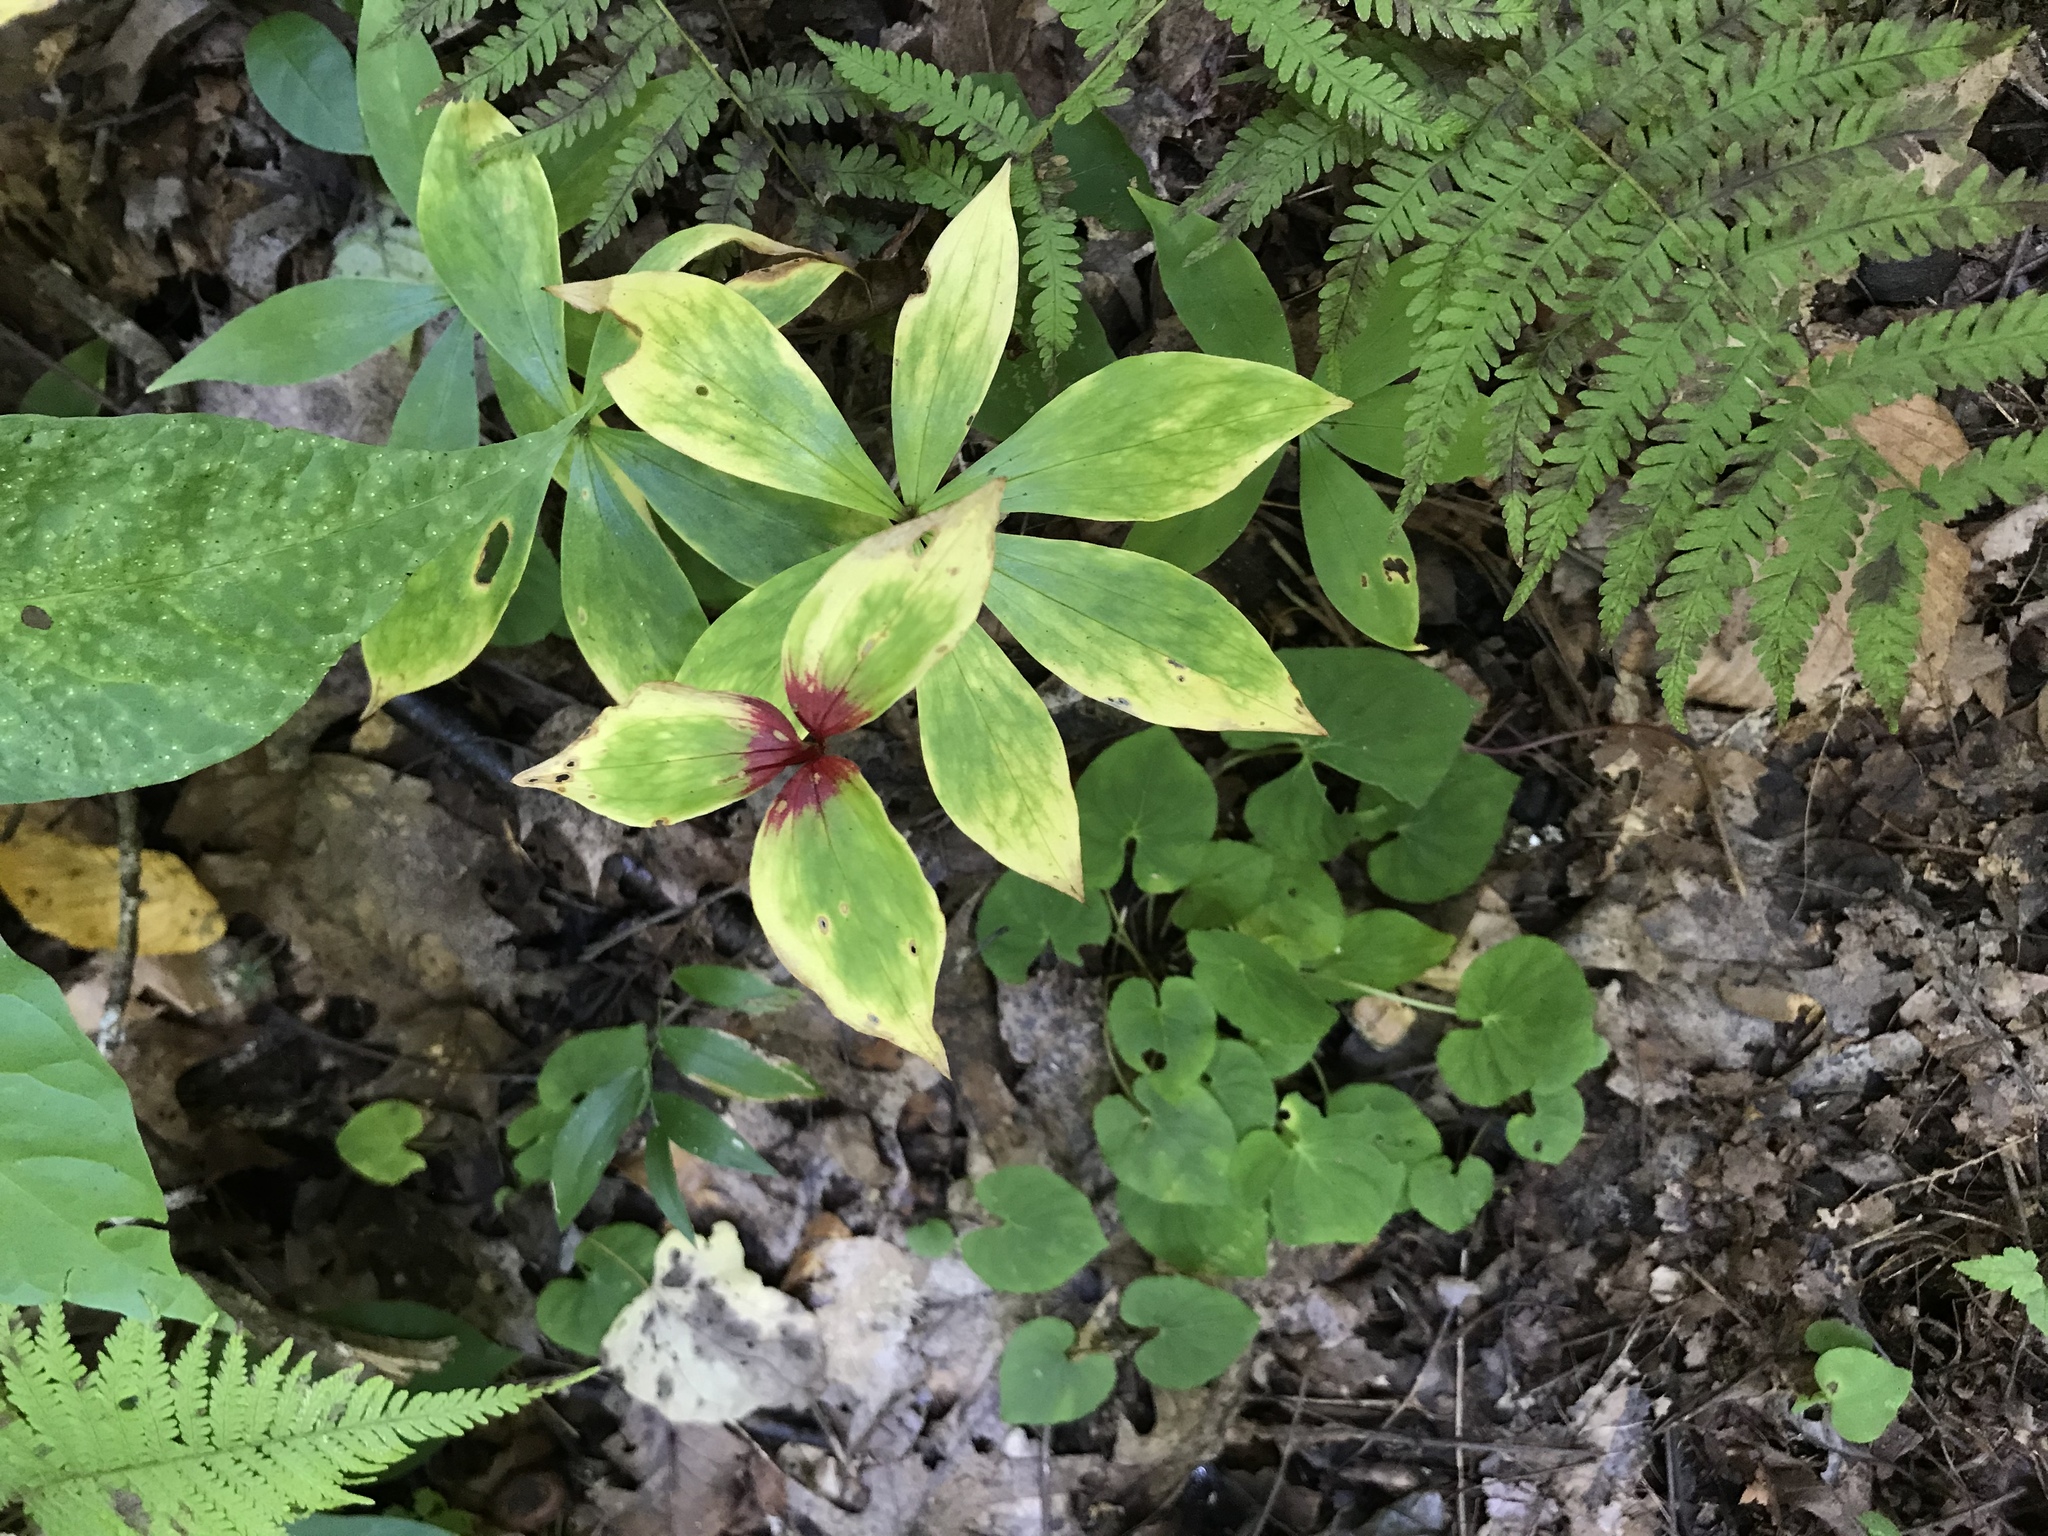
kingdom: Plantae
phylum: Tracheophyta
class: Liliopsida
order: Liliales
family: Liliaceae
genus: Medeola
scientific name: Medeola virginiana
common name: Indian cucumber-root
